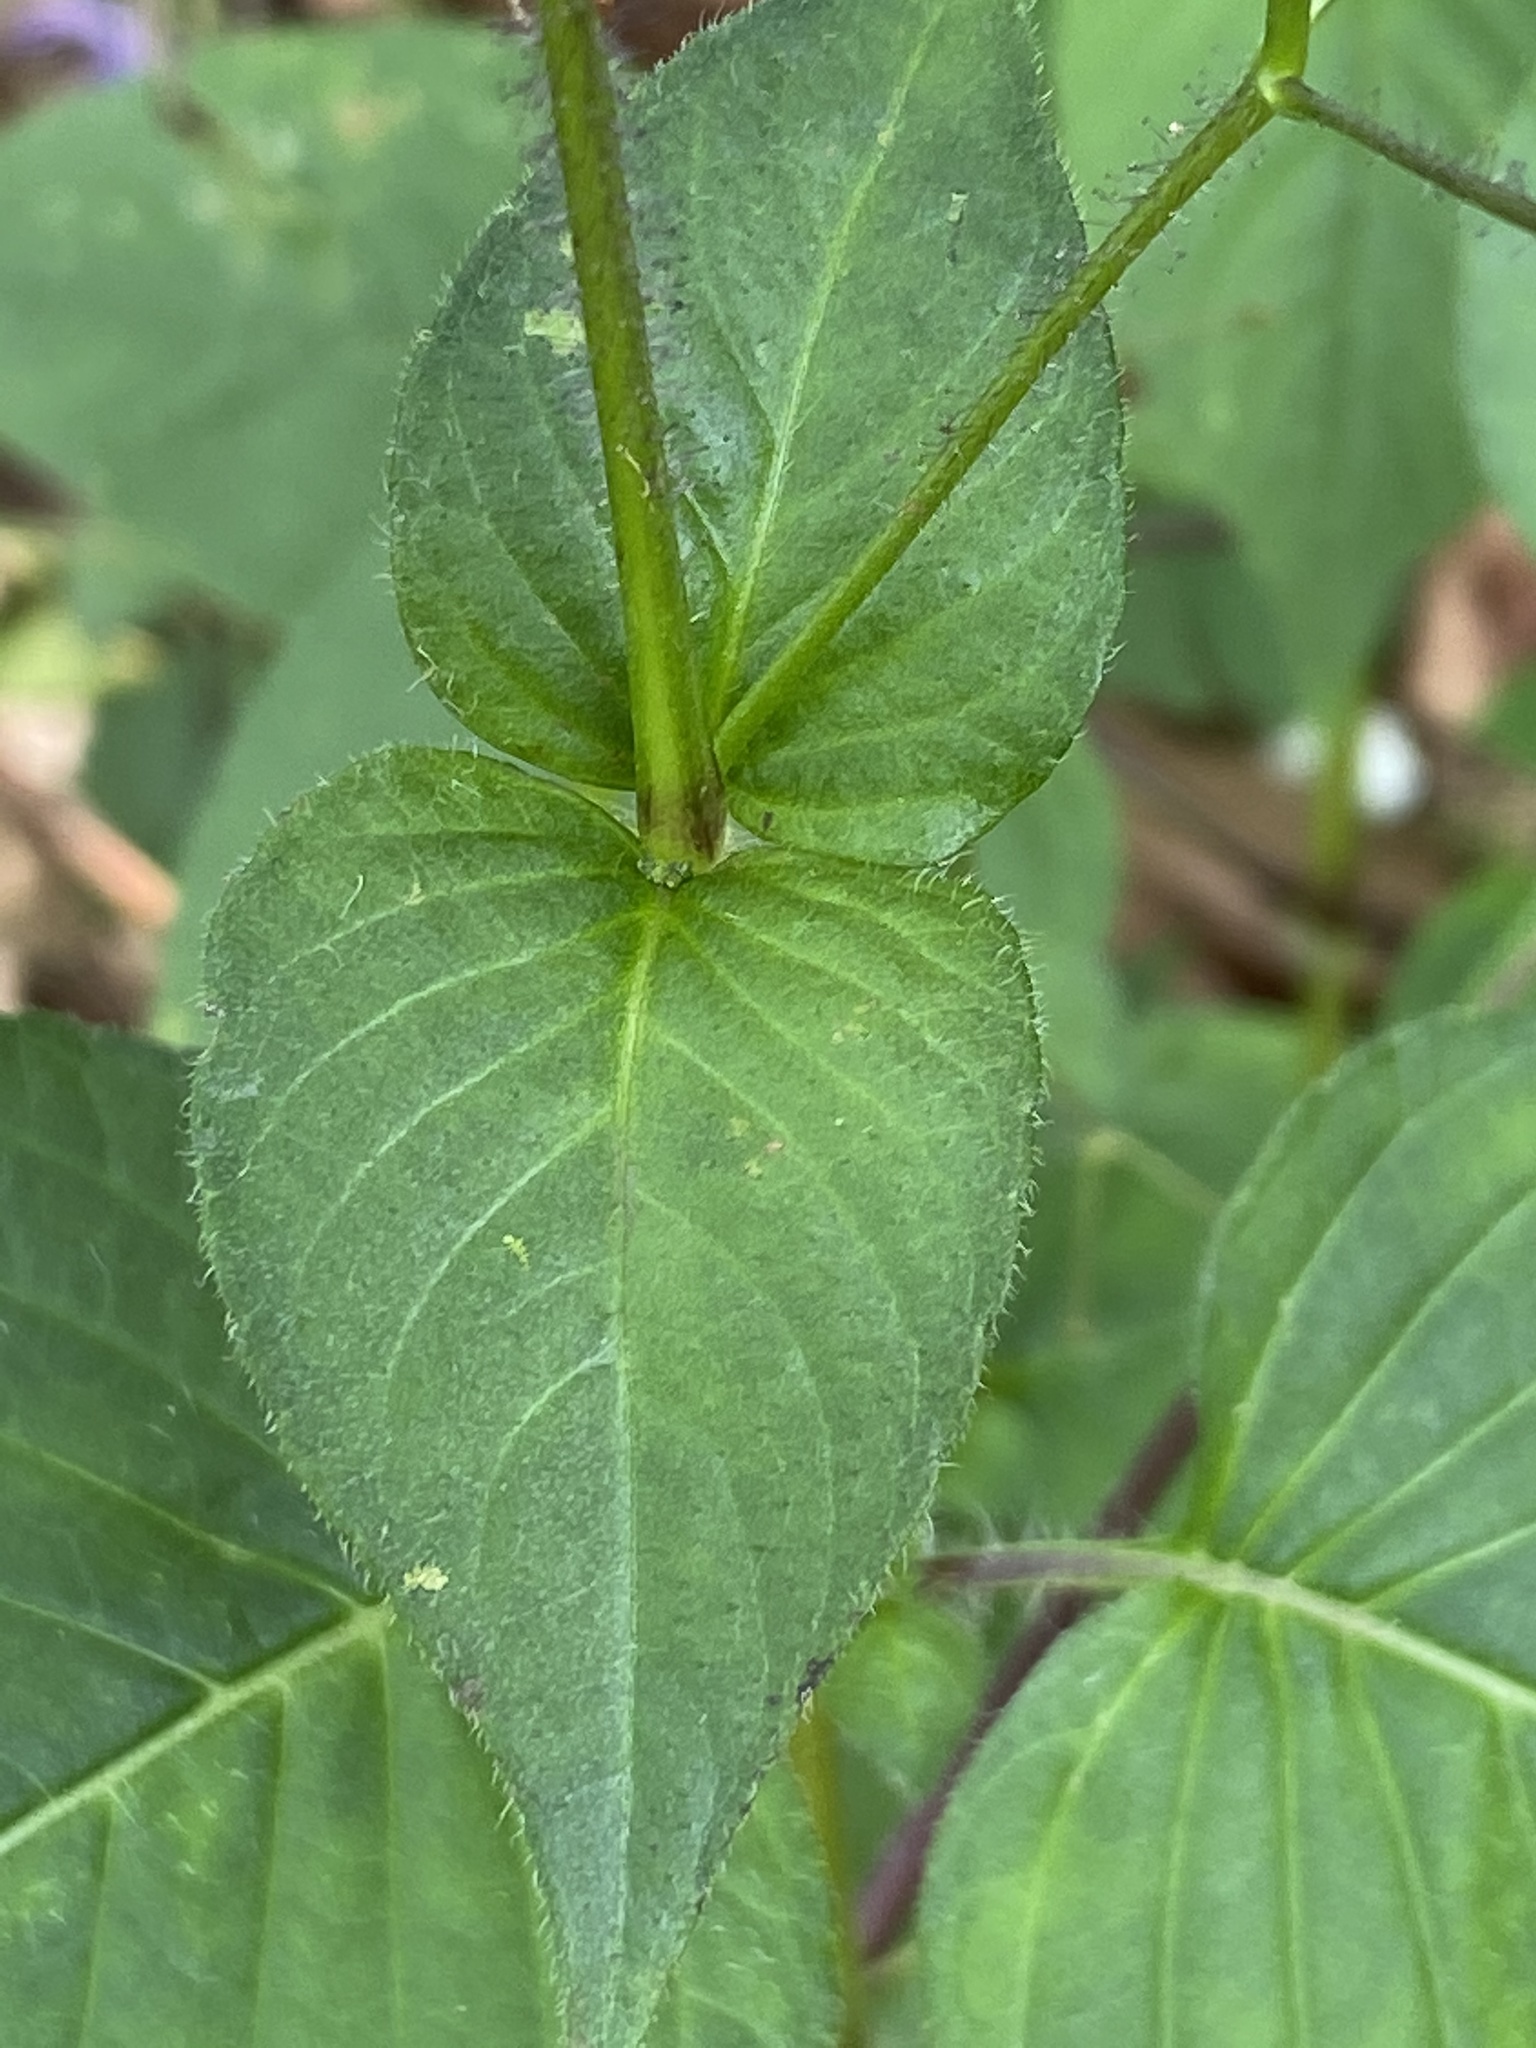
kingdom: Plantae
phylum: Tracheophyta
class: Magnoliopsida
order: Lamiales
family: Acanthaceae
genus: Brillantaisia
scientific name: Brillantaisia lamium
